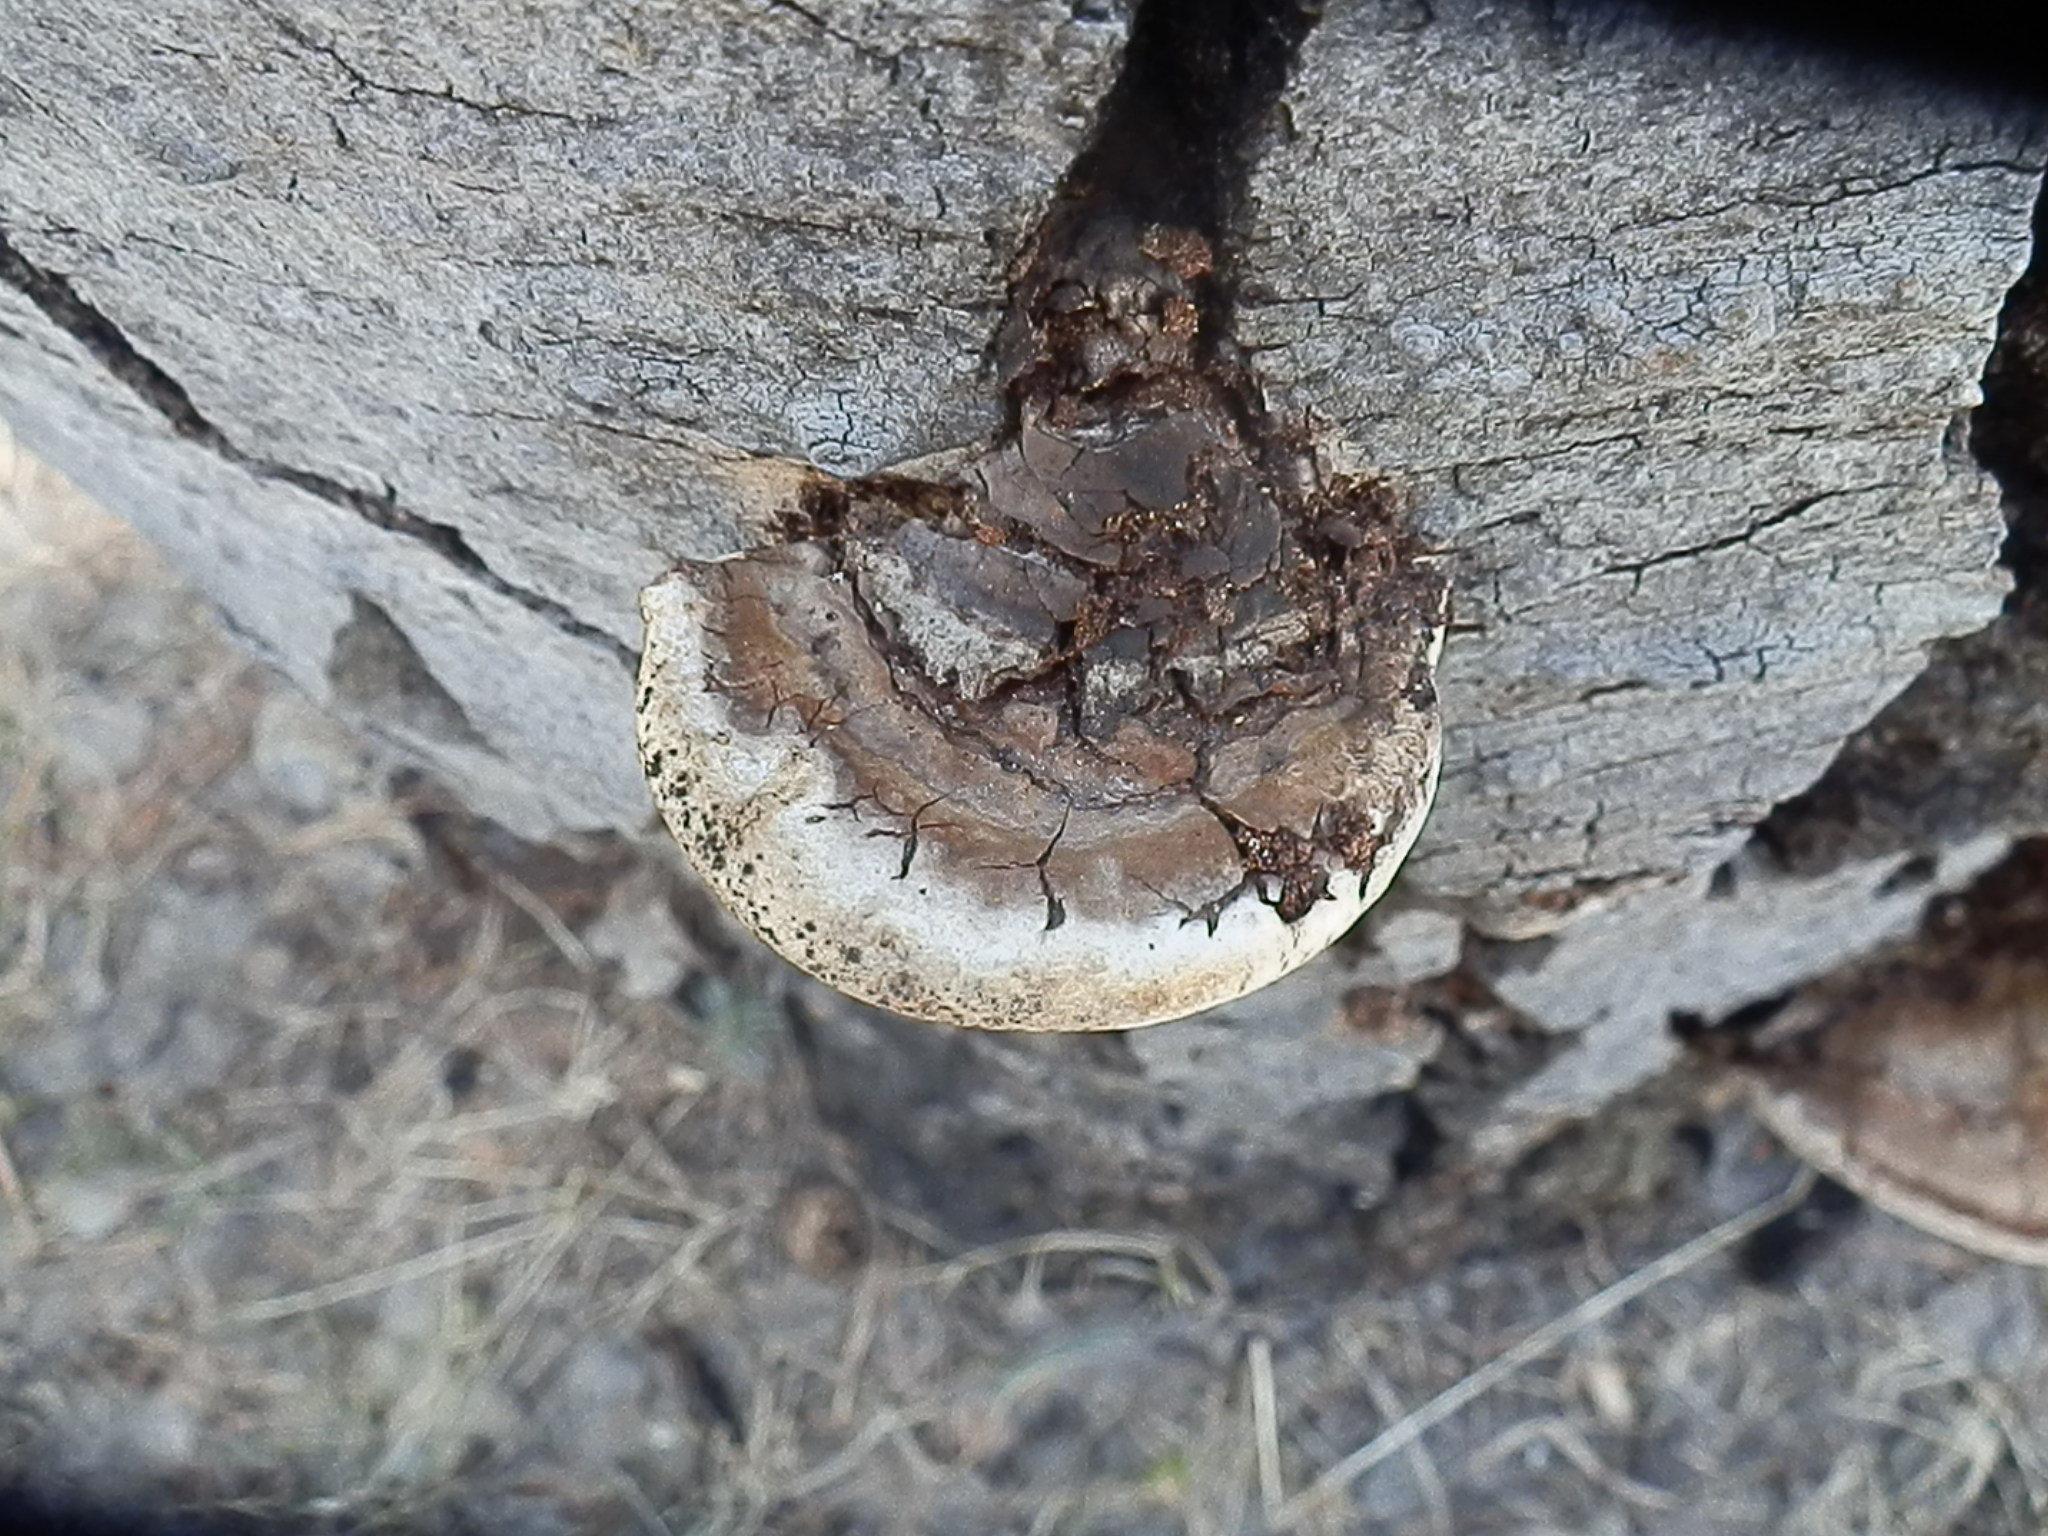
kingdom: Fungi
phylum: Basidiomycota
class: Agaricomycetes
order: Polyporales
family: Polyporaceae
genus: Ganoderma
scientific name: Ganoderma applanatum
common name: Artist's bracket
